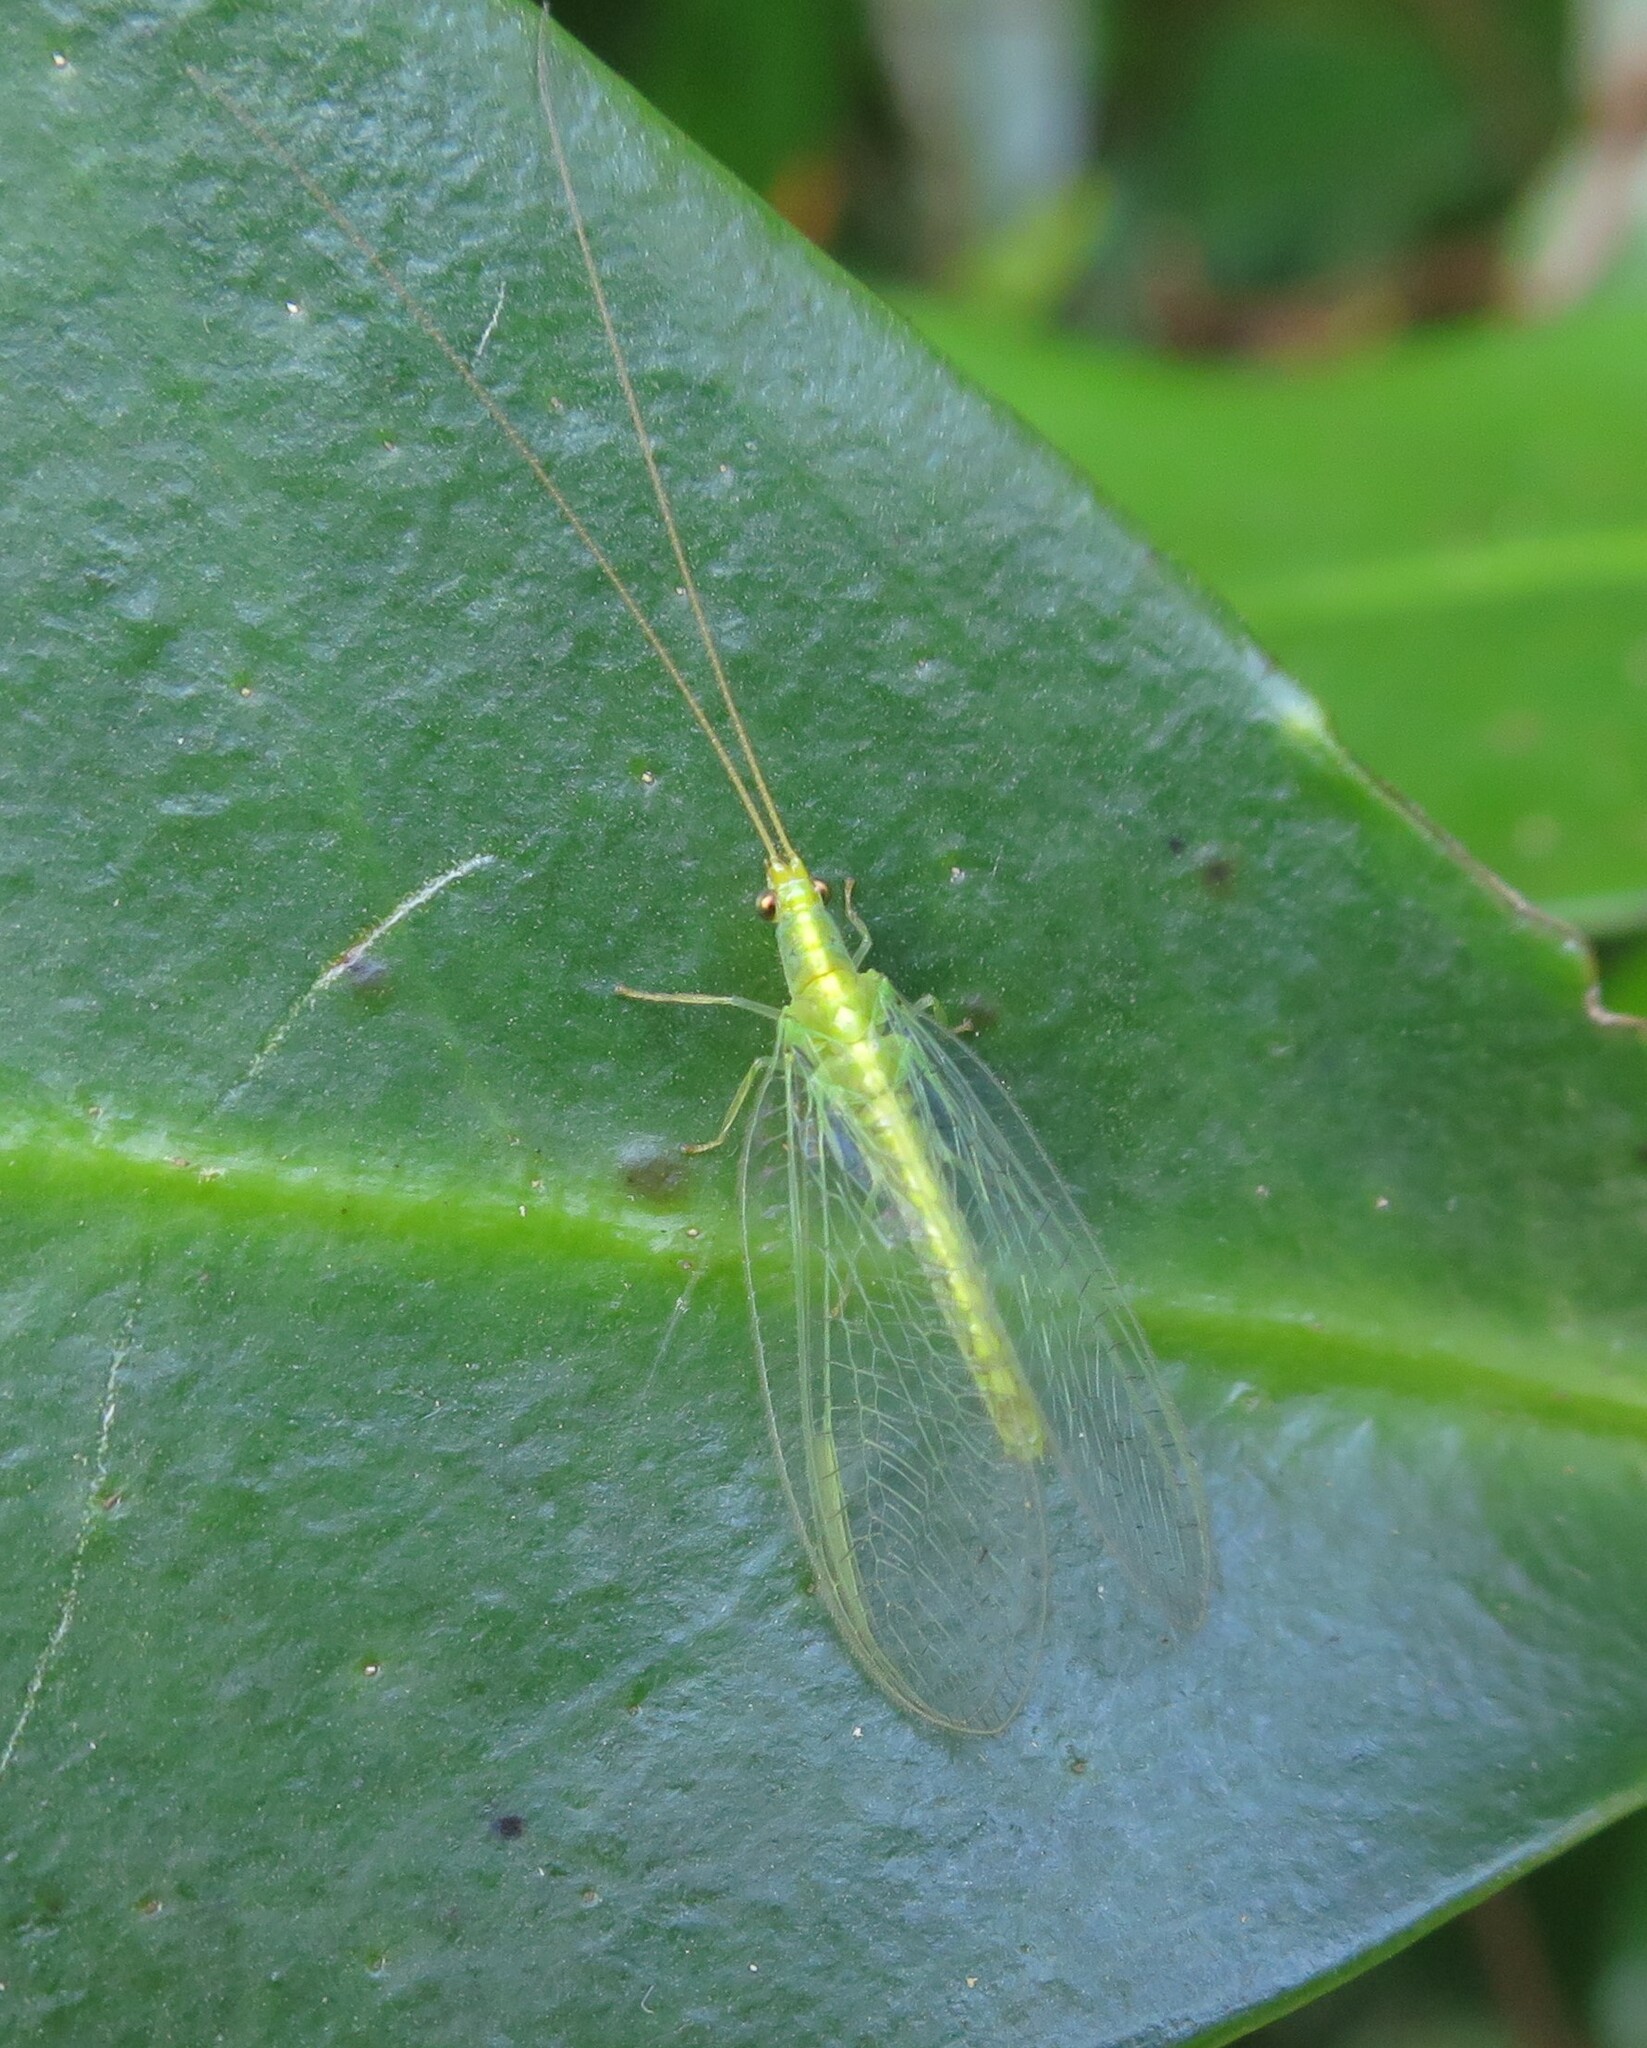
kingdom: Animalia
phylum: Arthropoda
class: Insecta
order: Neuroptera
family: Chrysopidae
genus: Mallada
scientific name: Mallada basalis
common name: Green lacewing
